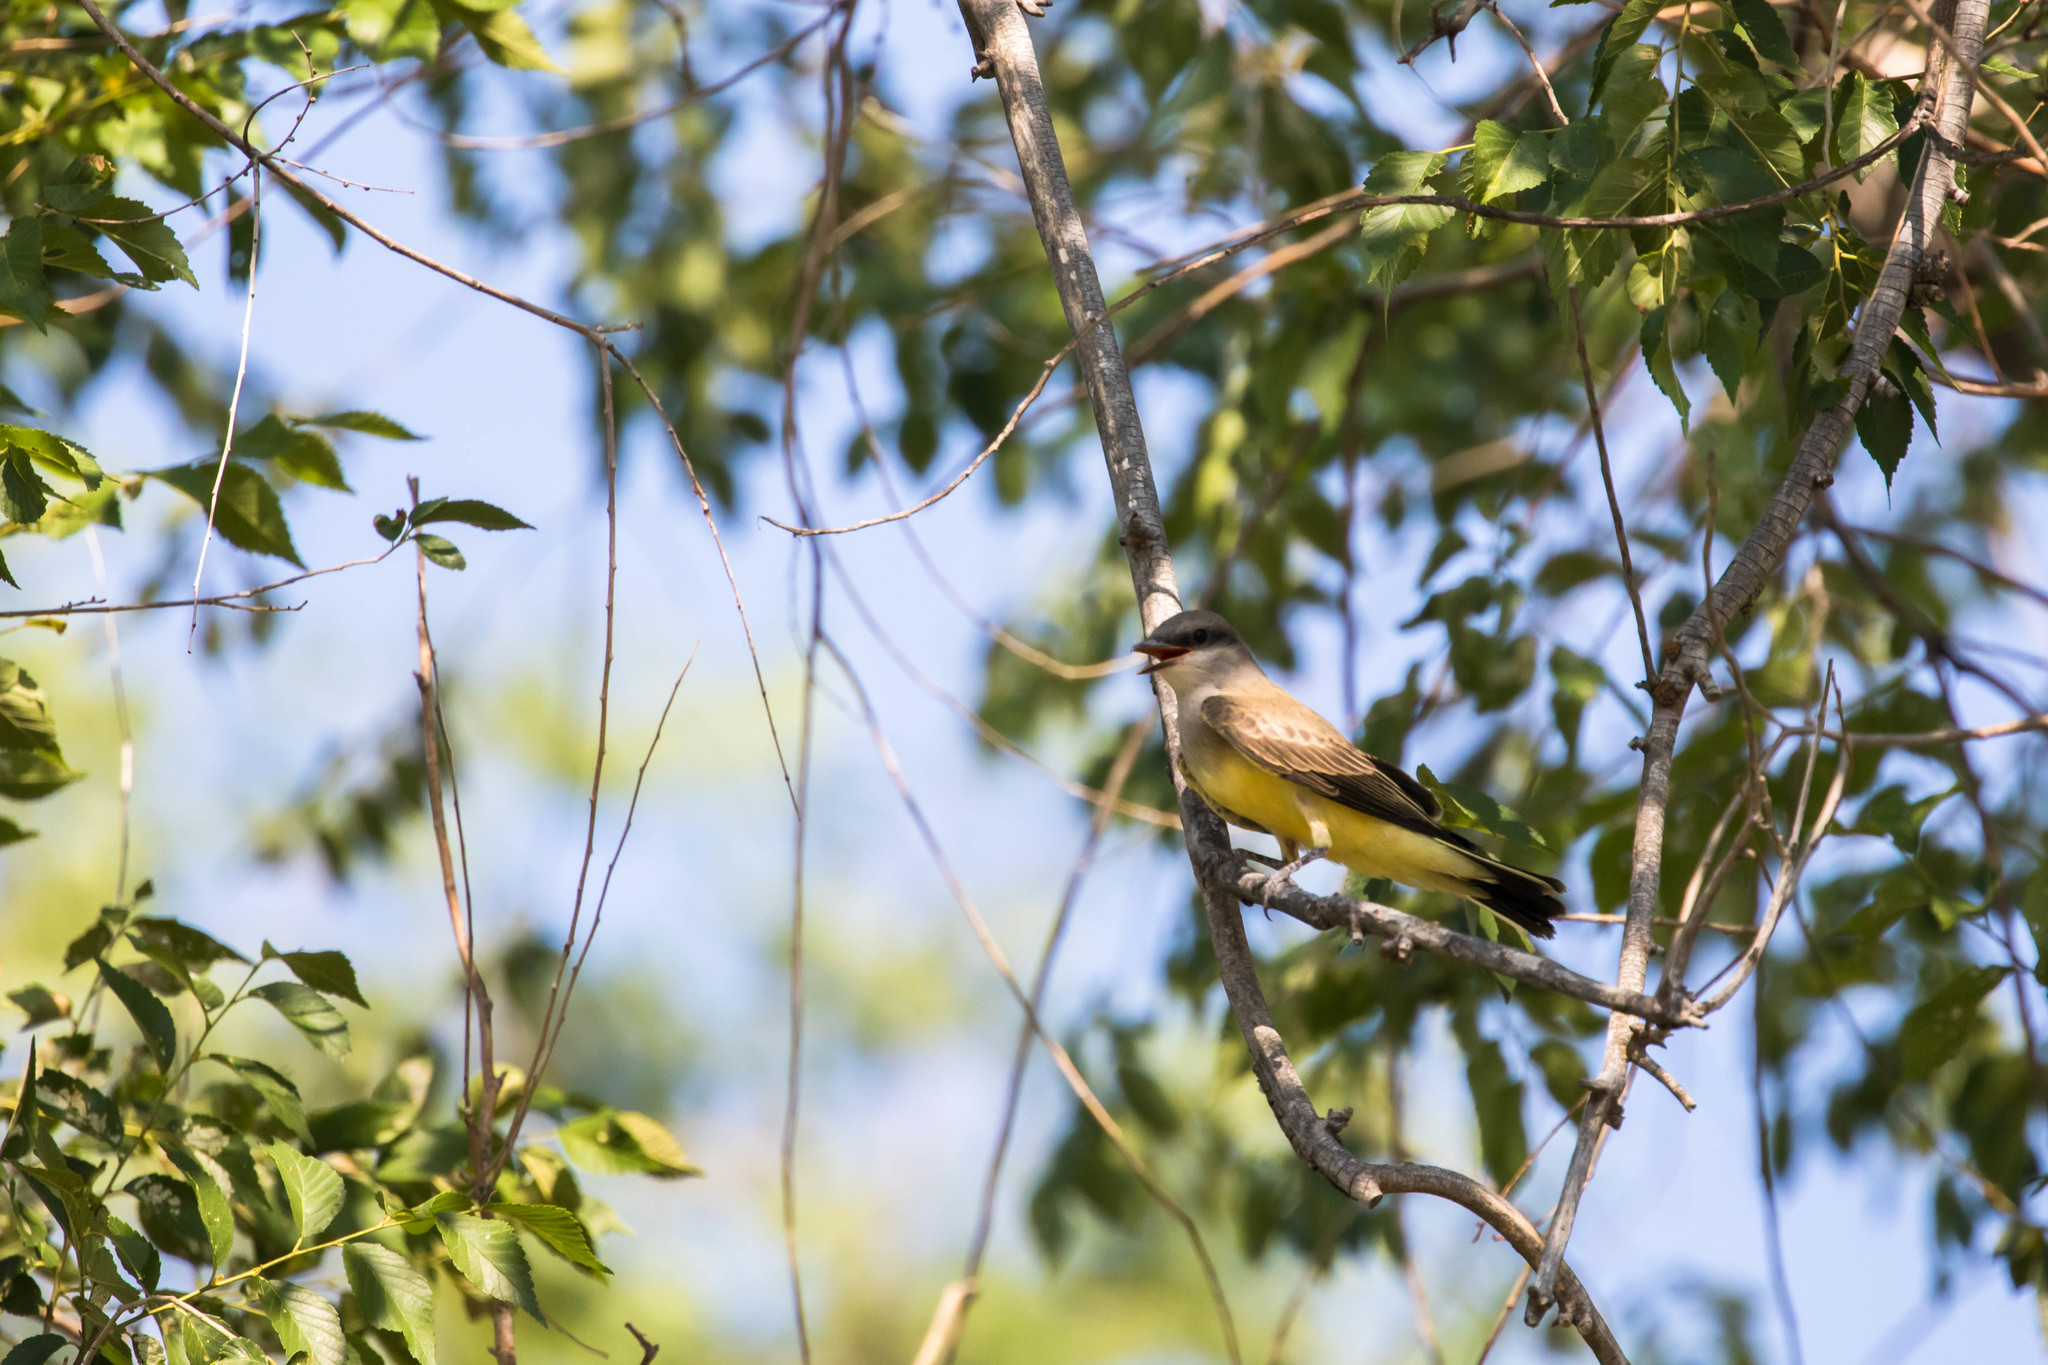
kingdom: Animalia
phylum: Chordata
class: Aves
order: Passeriformes
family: Tyrannidae
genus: Tyrannus
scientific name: Tyrannus verticalis
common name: Western kingbird
